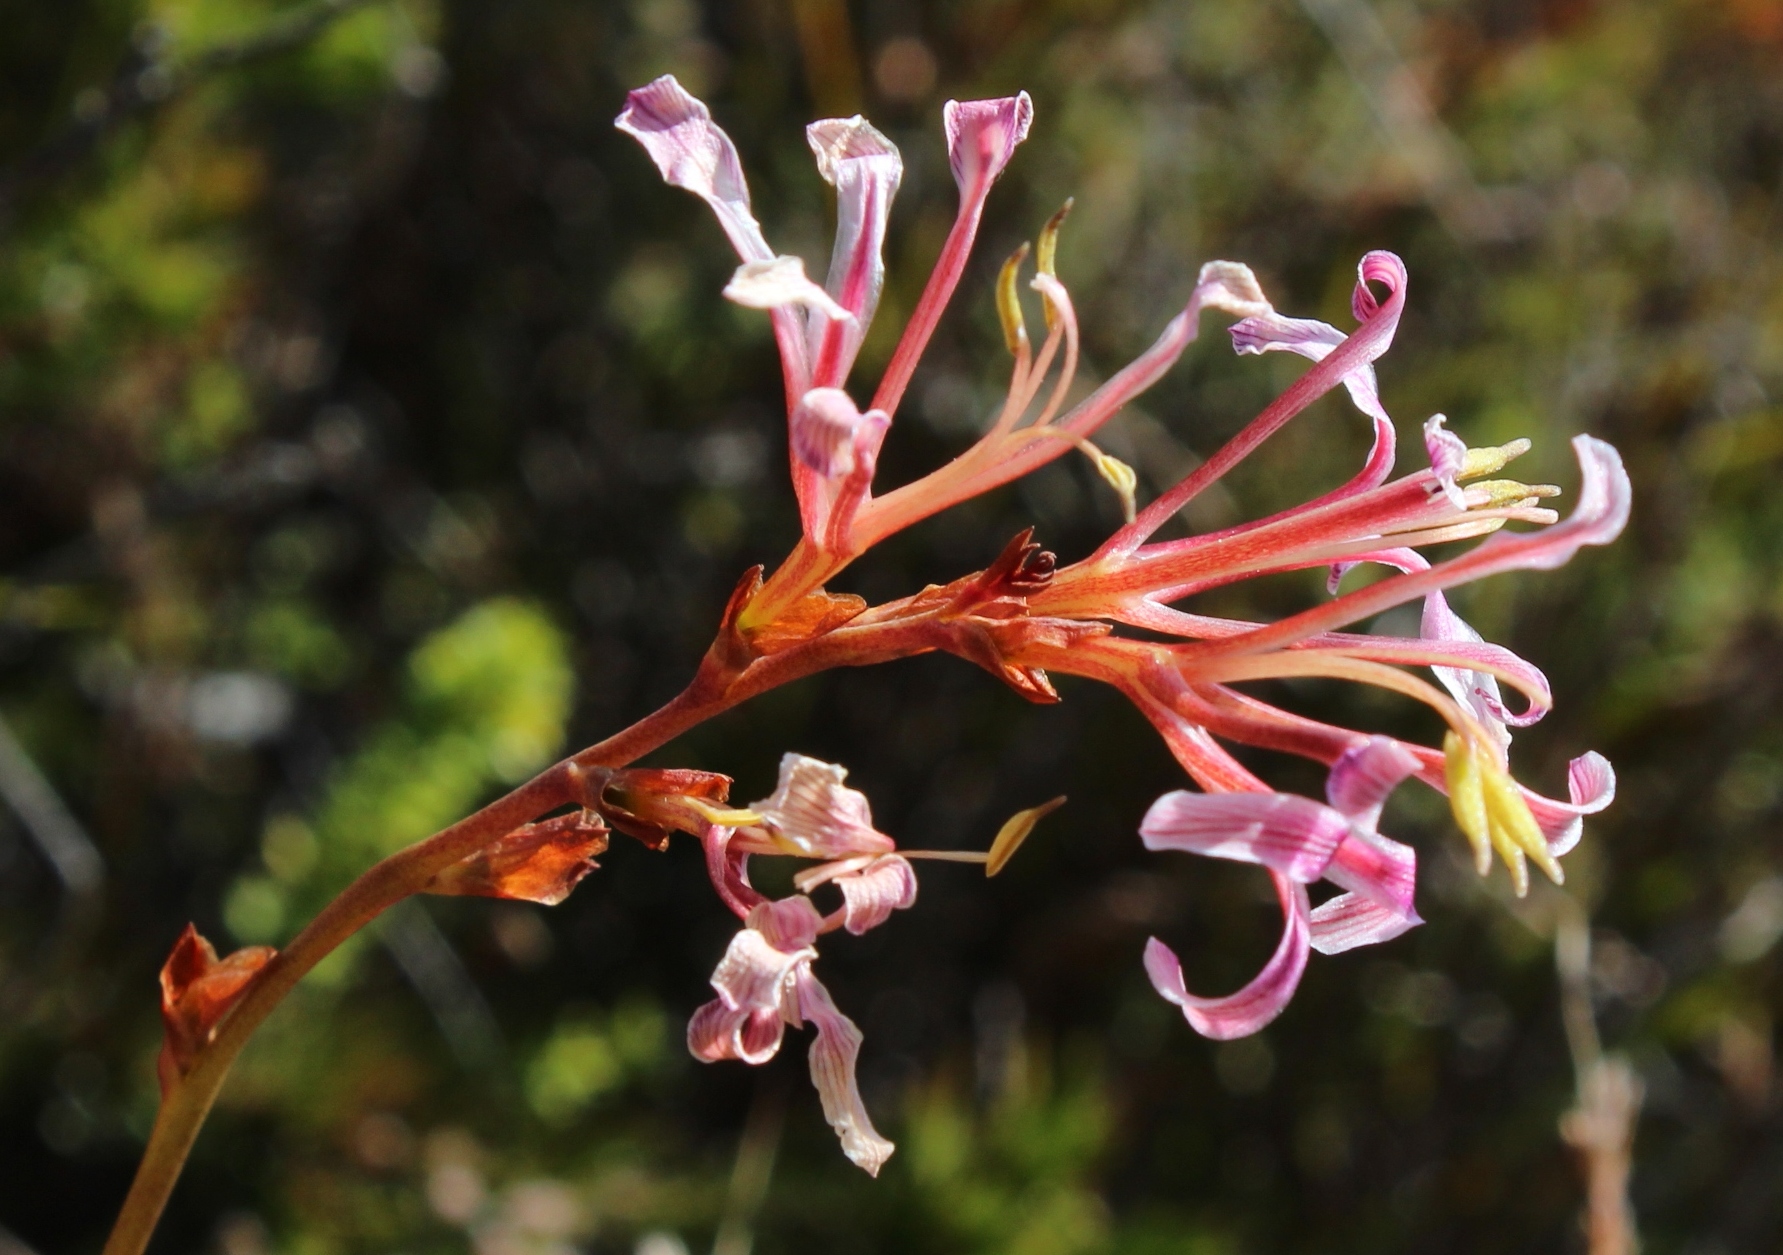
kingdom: Plantae
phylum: Tracheophyta
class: Liliopsida
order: Asparagales
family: Iridaceae
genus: Tritoniopsis
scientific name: Tritoniopsis dodii
